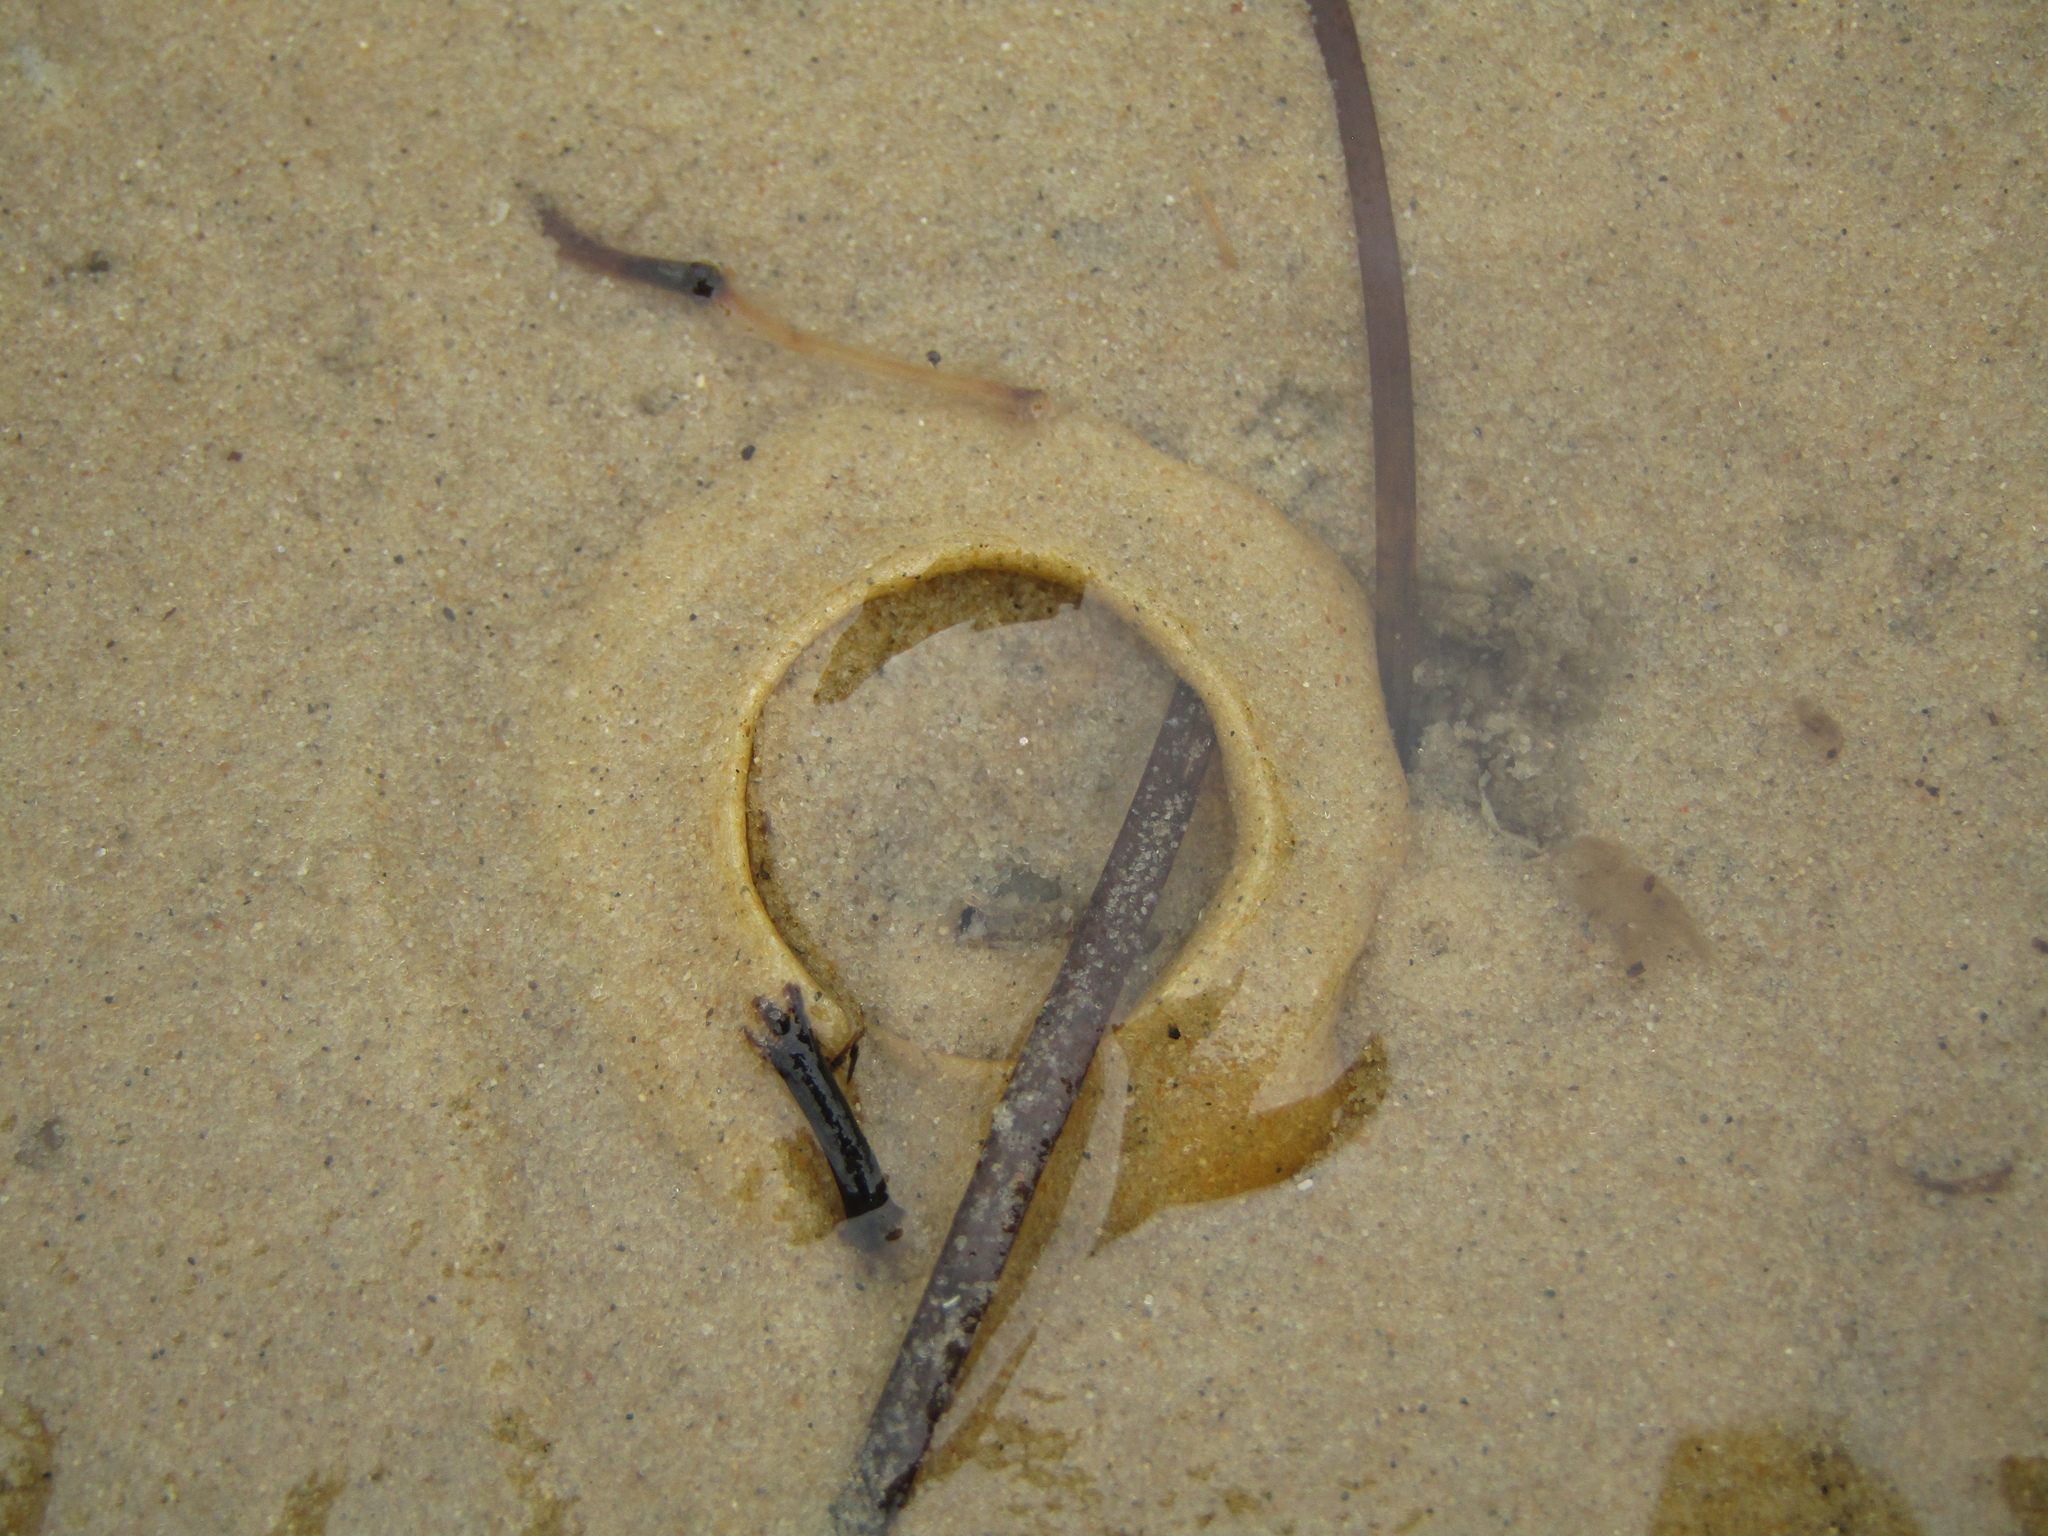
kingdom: Animalia
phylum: Mollusca
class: Gastropoda
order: Littorinimorpha
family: Naticidae
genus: Notocochlis
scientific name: Notocochlis gualteriana
